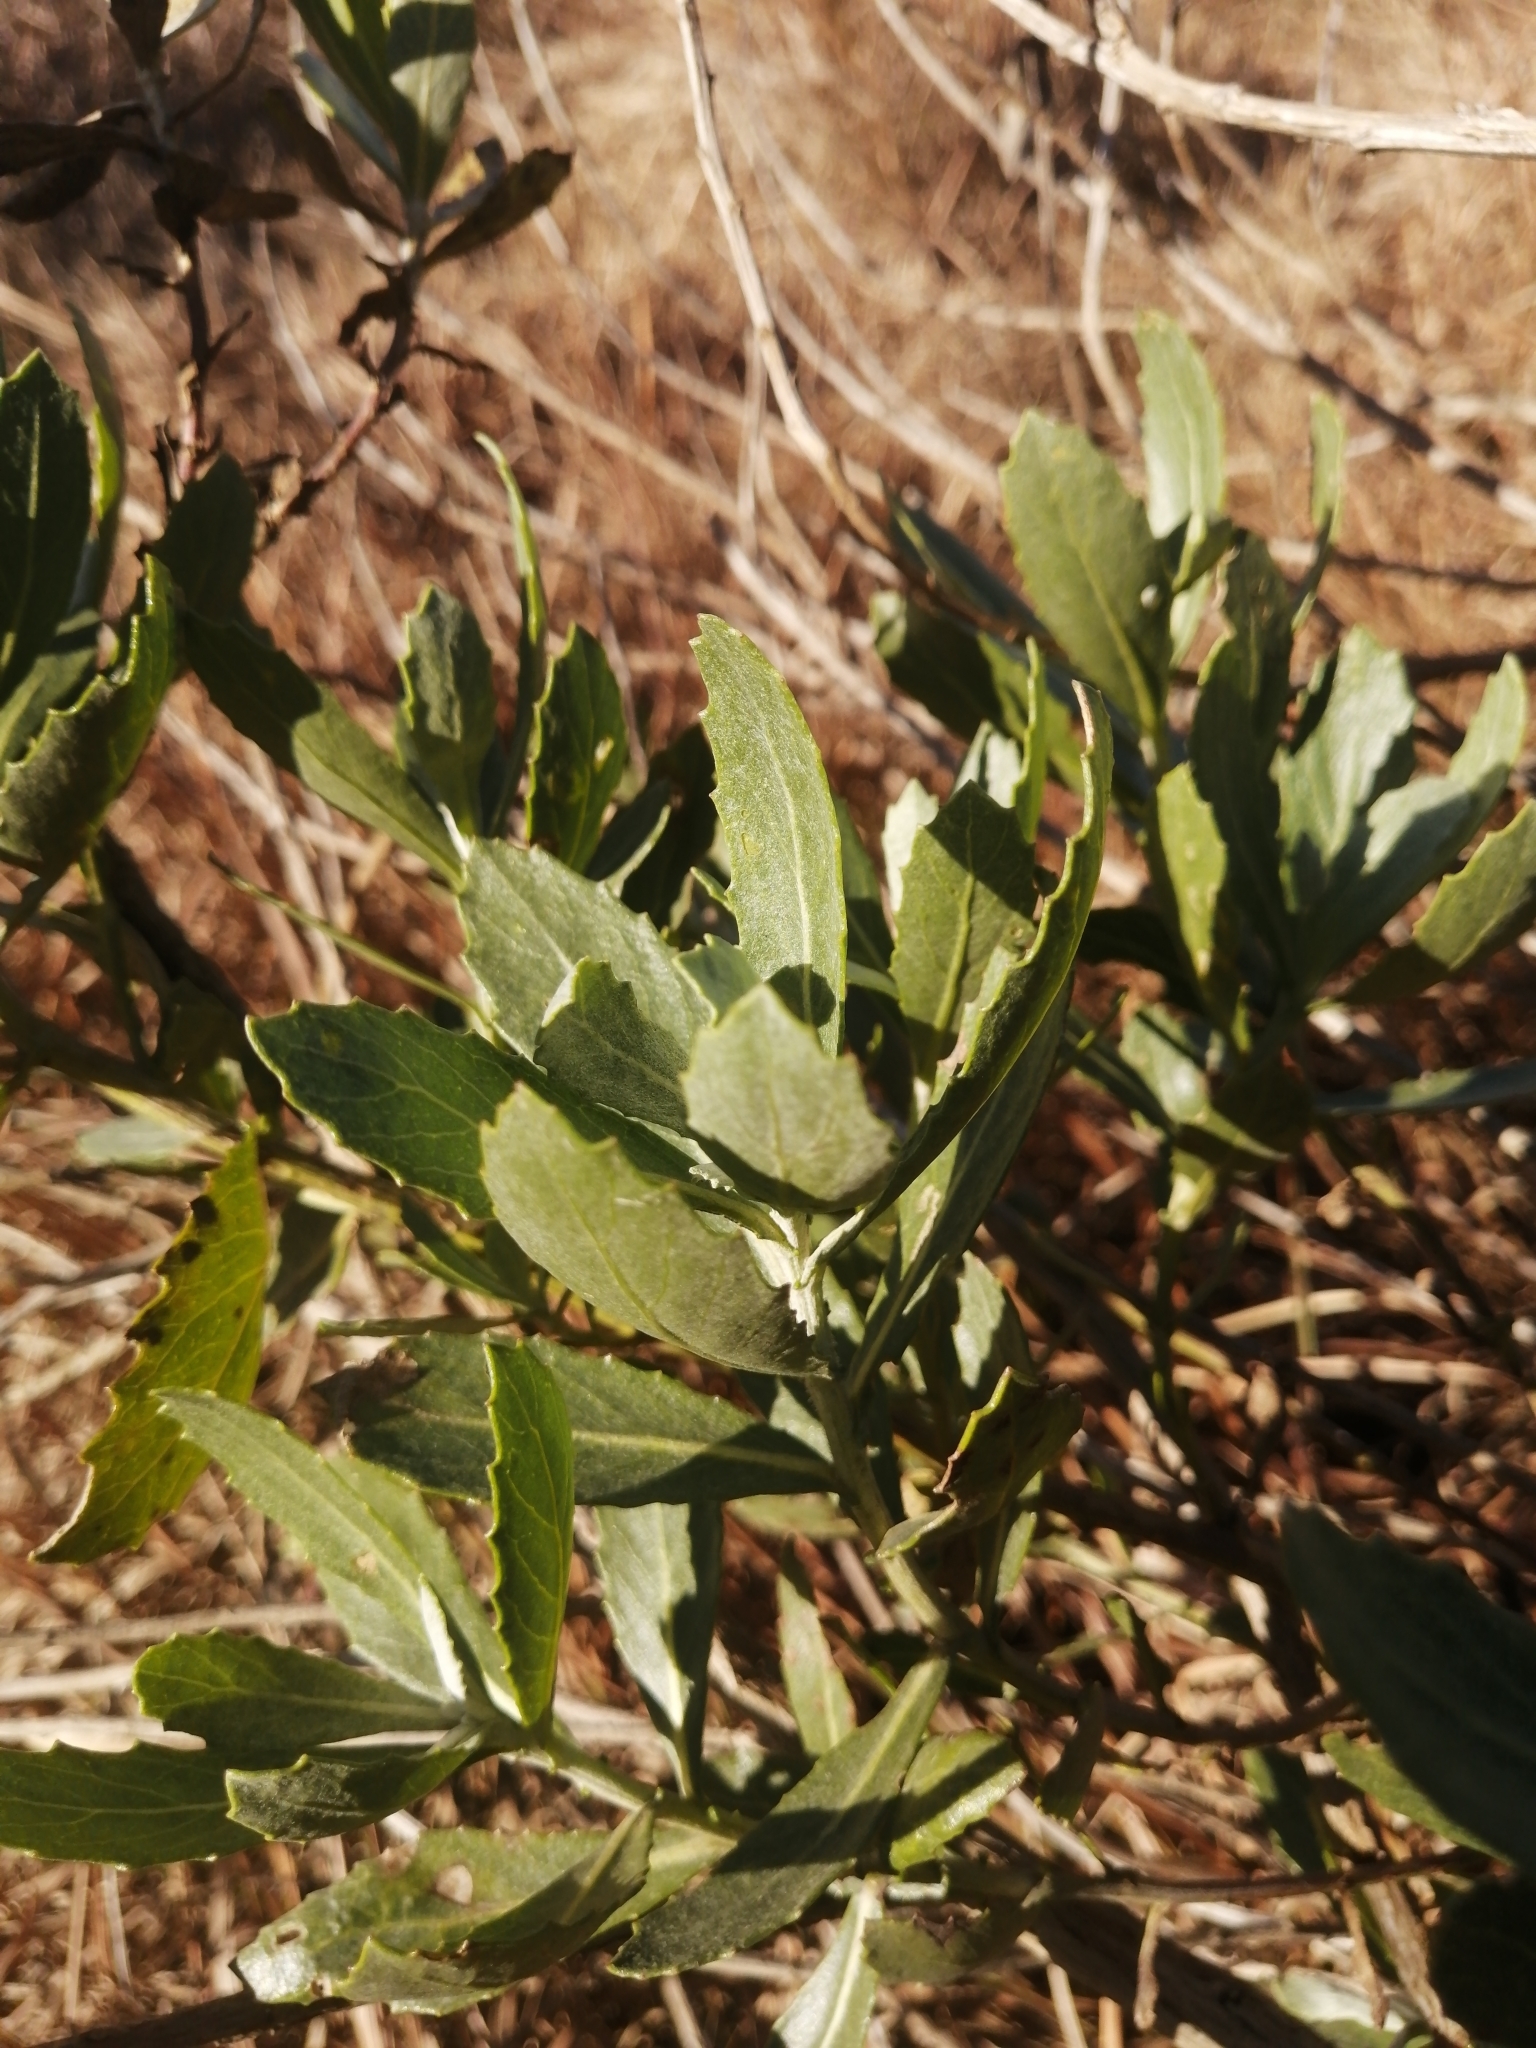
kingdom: Plantae
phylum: Tracheophyta
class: Magnoliopsida
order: Asterales
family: Asteraceae
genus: Senecio
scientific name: Senecio halimifolius
